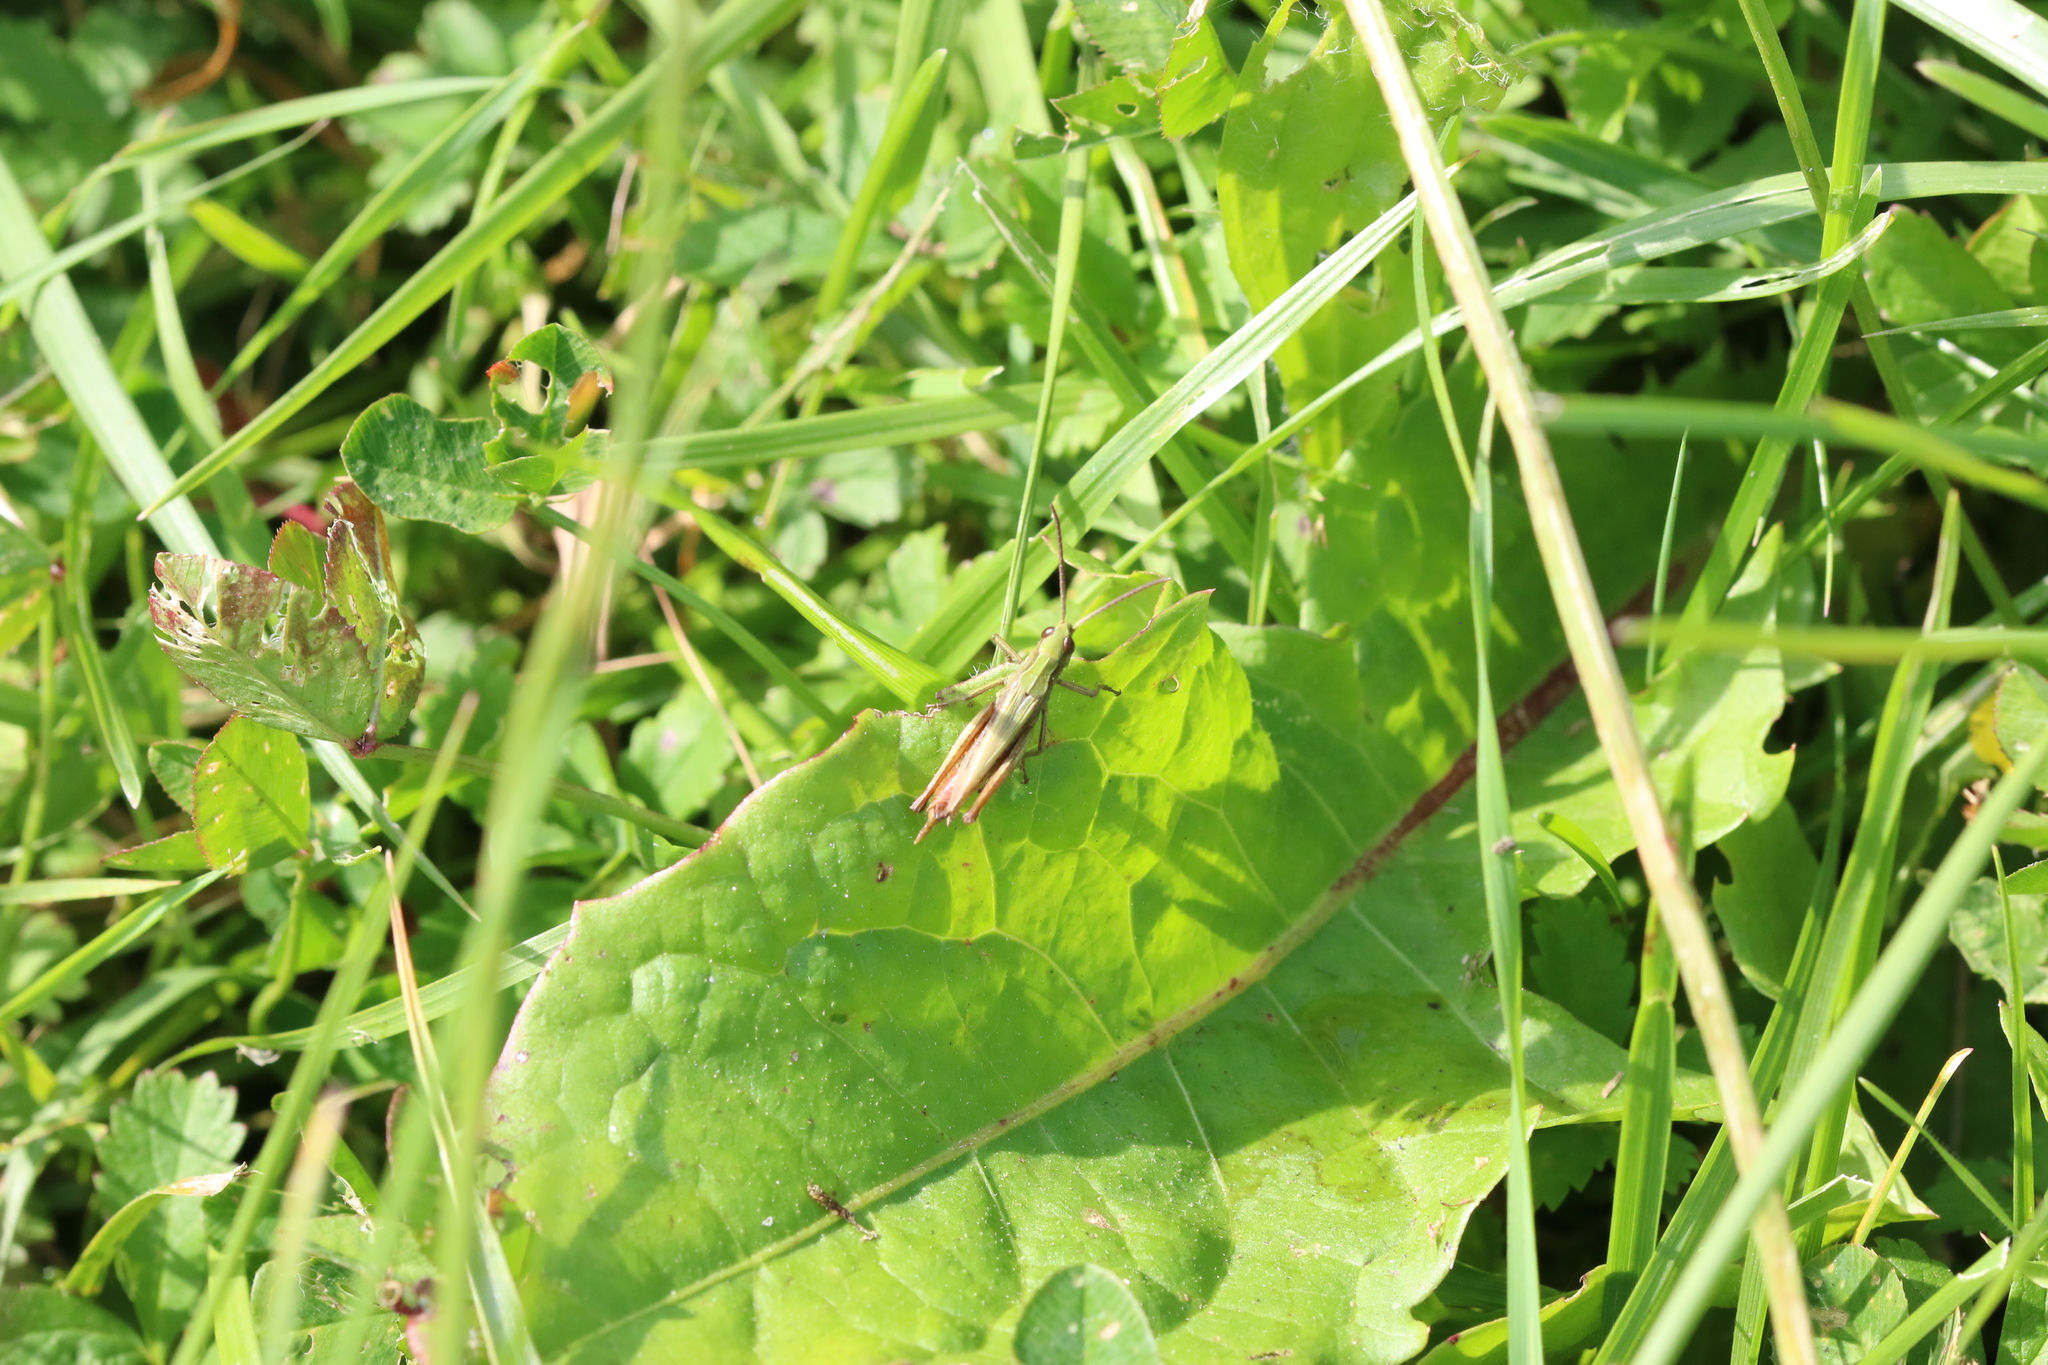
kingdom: Animalia
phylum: Arthropoda
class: Insecta
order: Orthoptera
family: Acrididae
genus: Chorthippus
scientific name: Chorthippus dorsatus
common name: Steppe grasshopper
